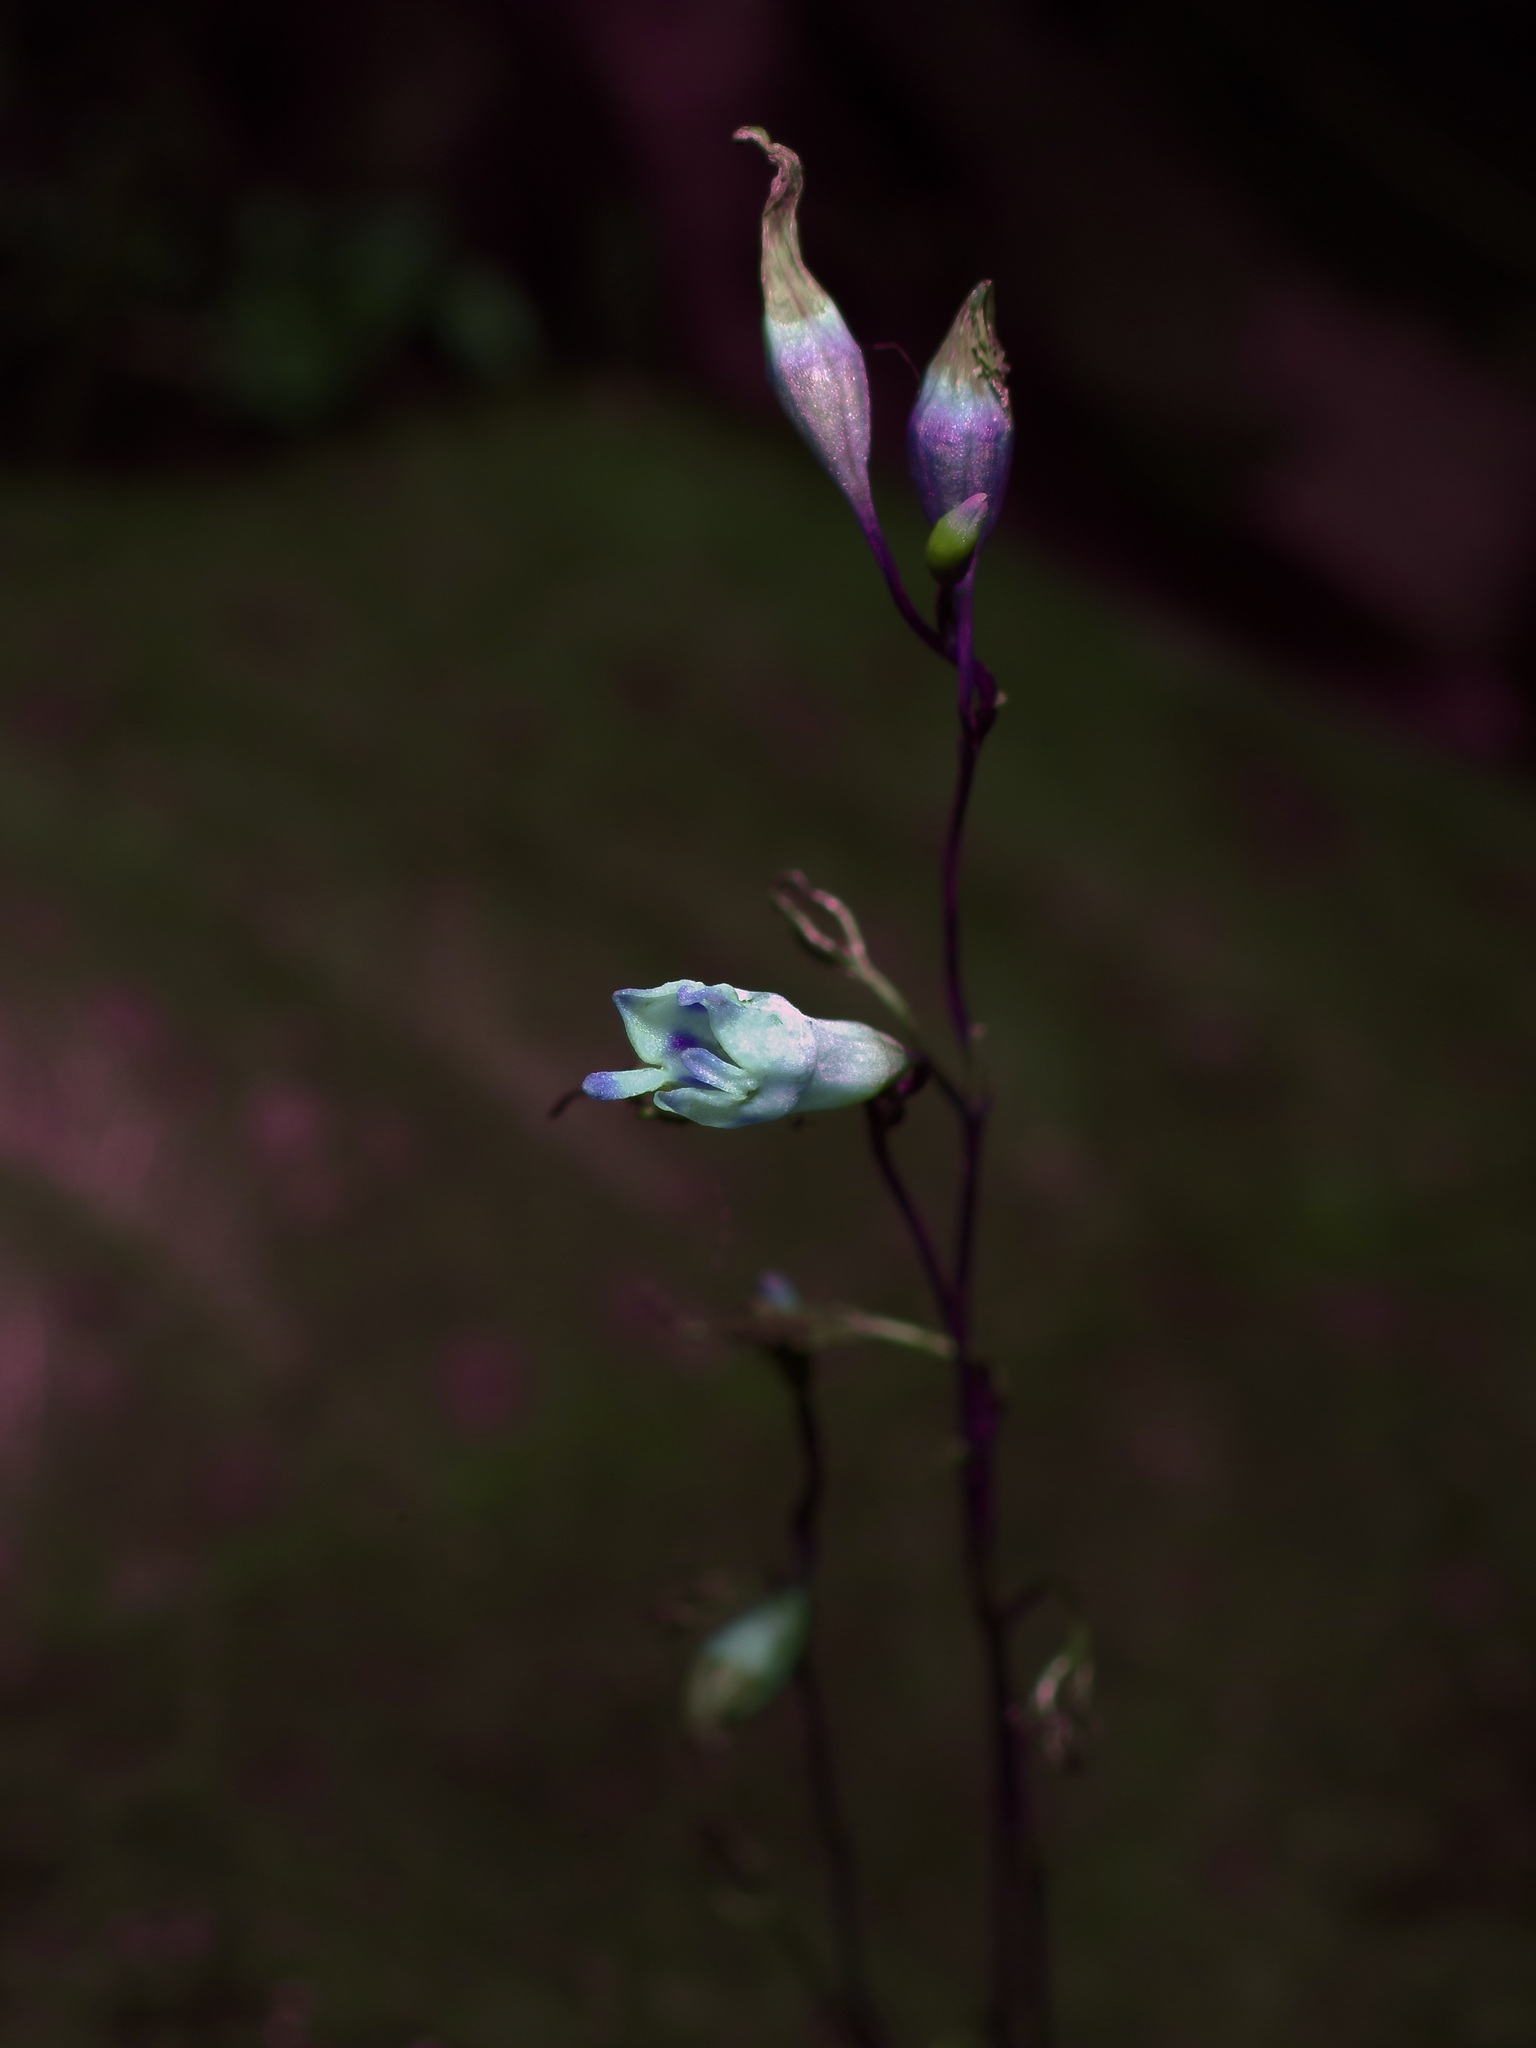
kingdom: Plantae
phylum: Tracheophyta
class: Liliopsida
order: Dioscoreales
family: Burmanniaceae
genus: Apteria
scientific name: Apteria aphylla
